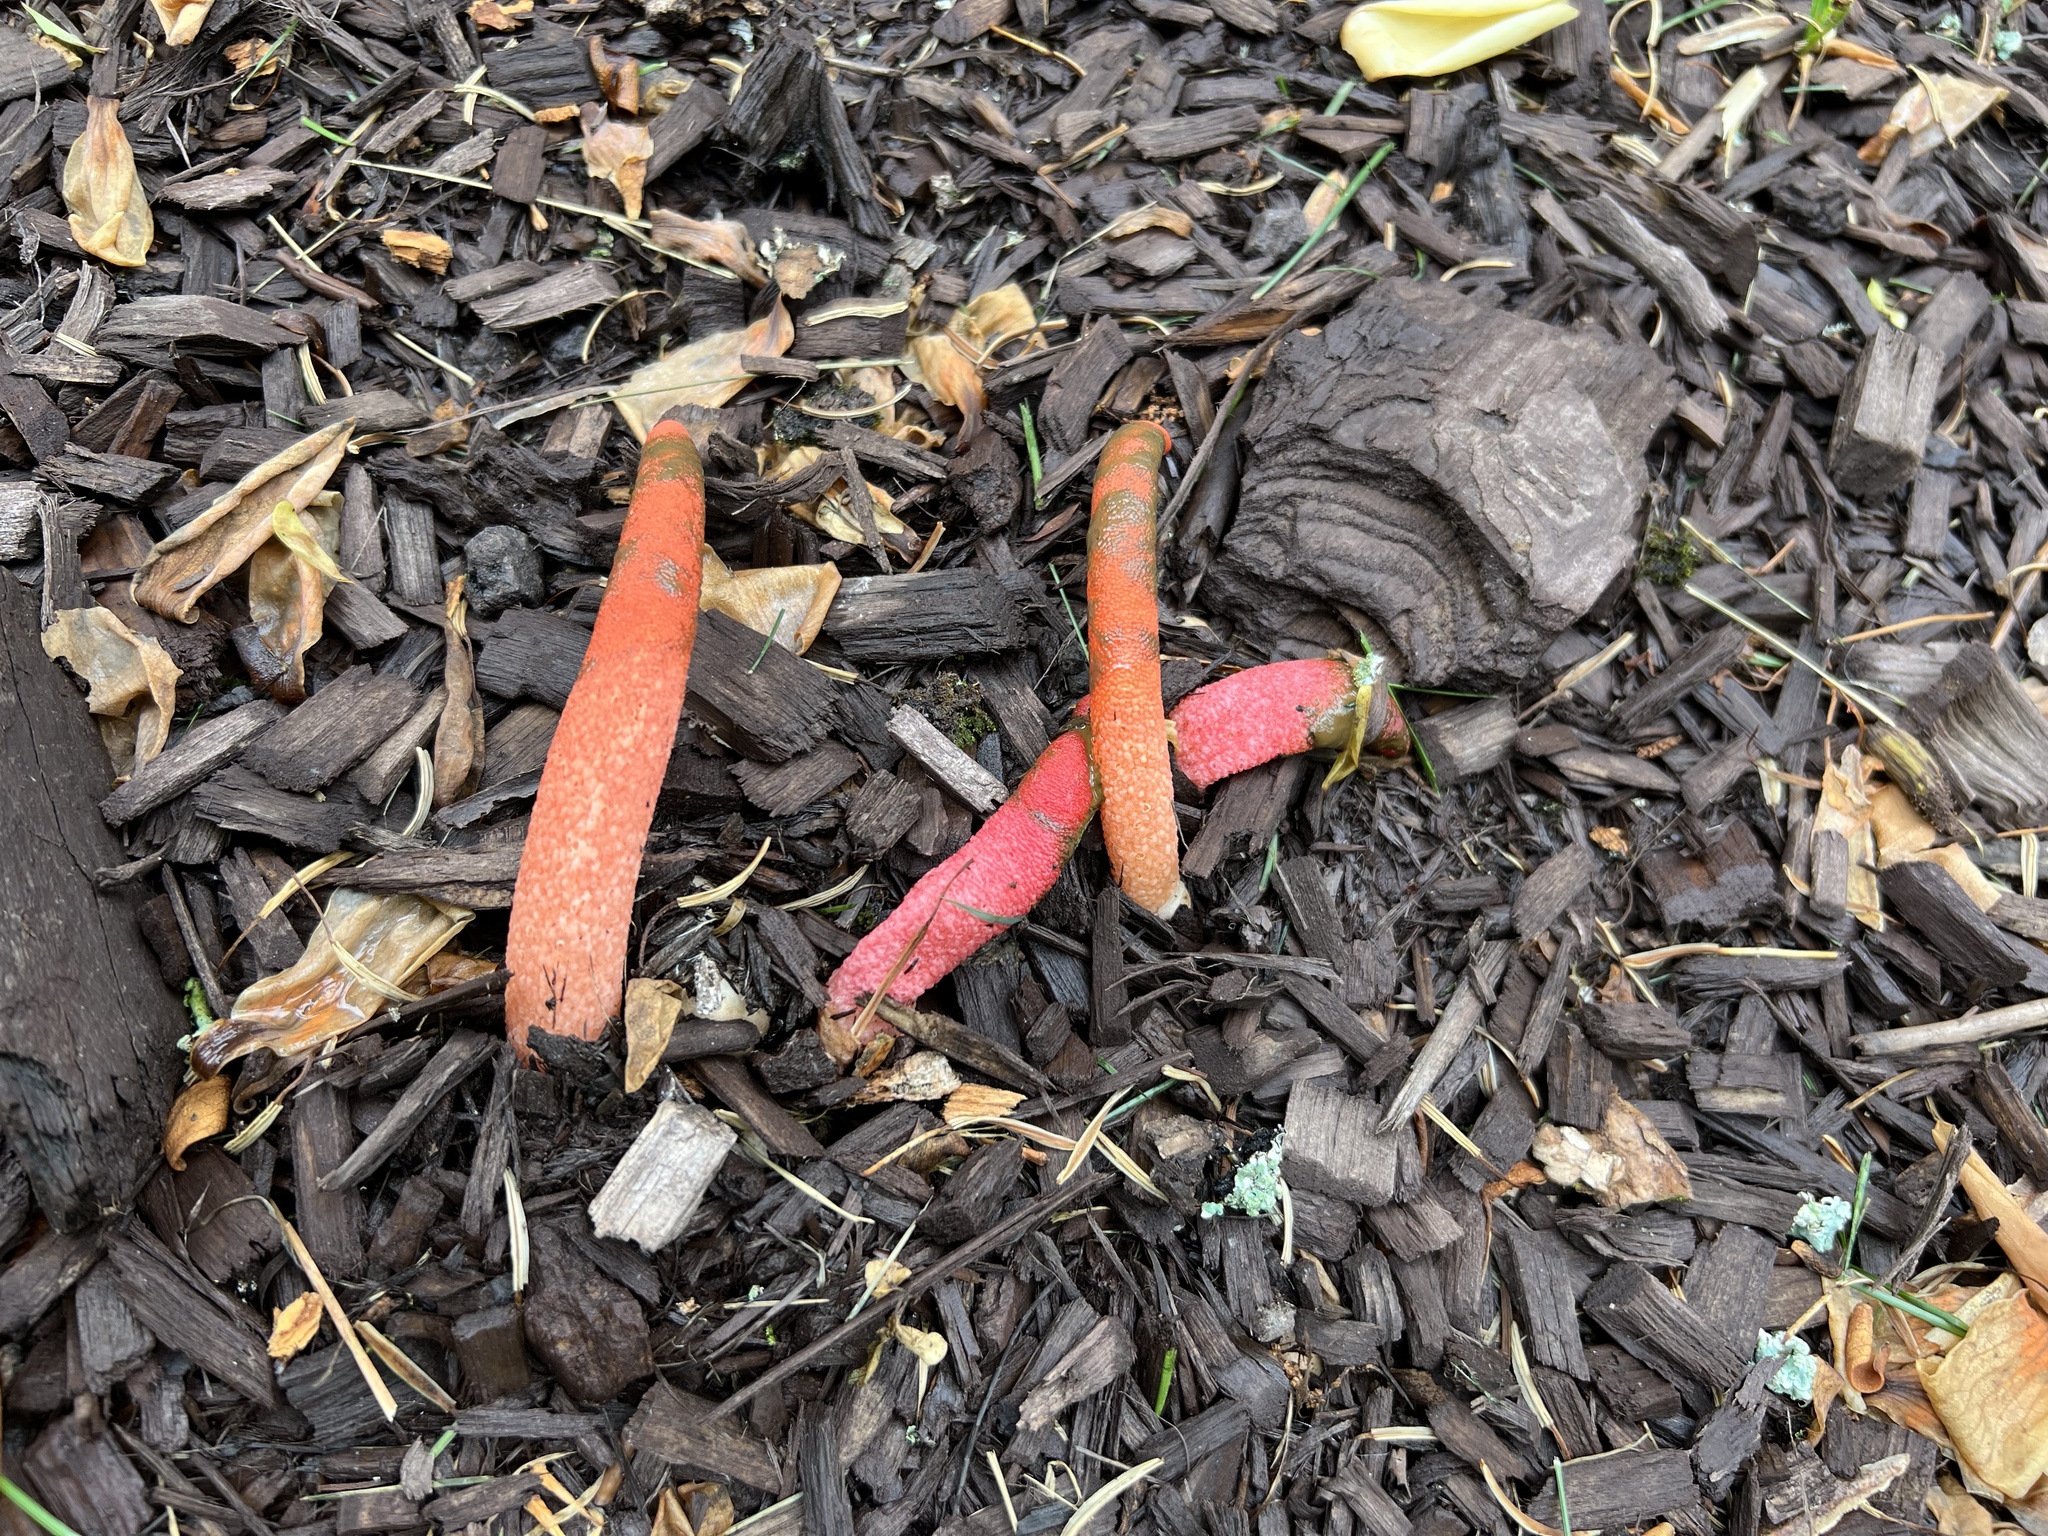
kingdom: Fungi
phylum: Basidiomycota
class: Agaricomycetes
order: Phallales
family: Phallaceae
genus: Mutinus
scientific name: Mutinus elegans
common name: Devil's dipstick
